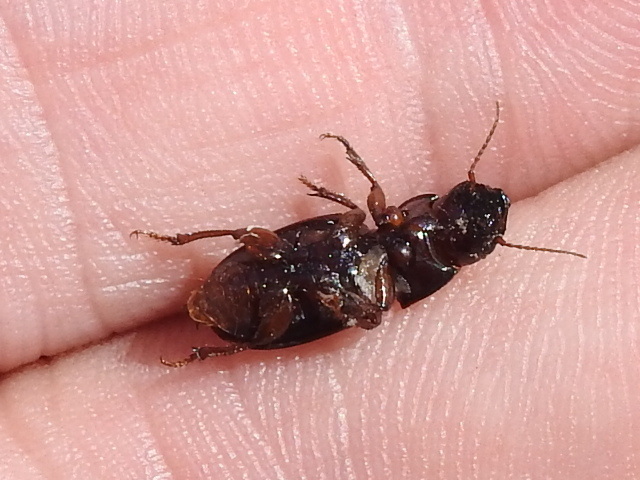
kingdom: Animalia
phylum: Arthropoda
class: Insecta
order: Coleoptera
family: Carabidae
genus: Cratacanthus
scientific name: Cratacanthus dubius
